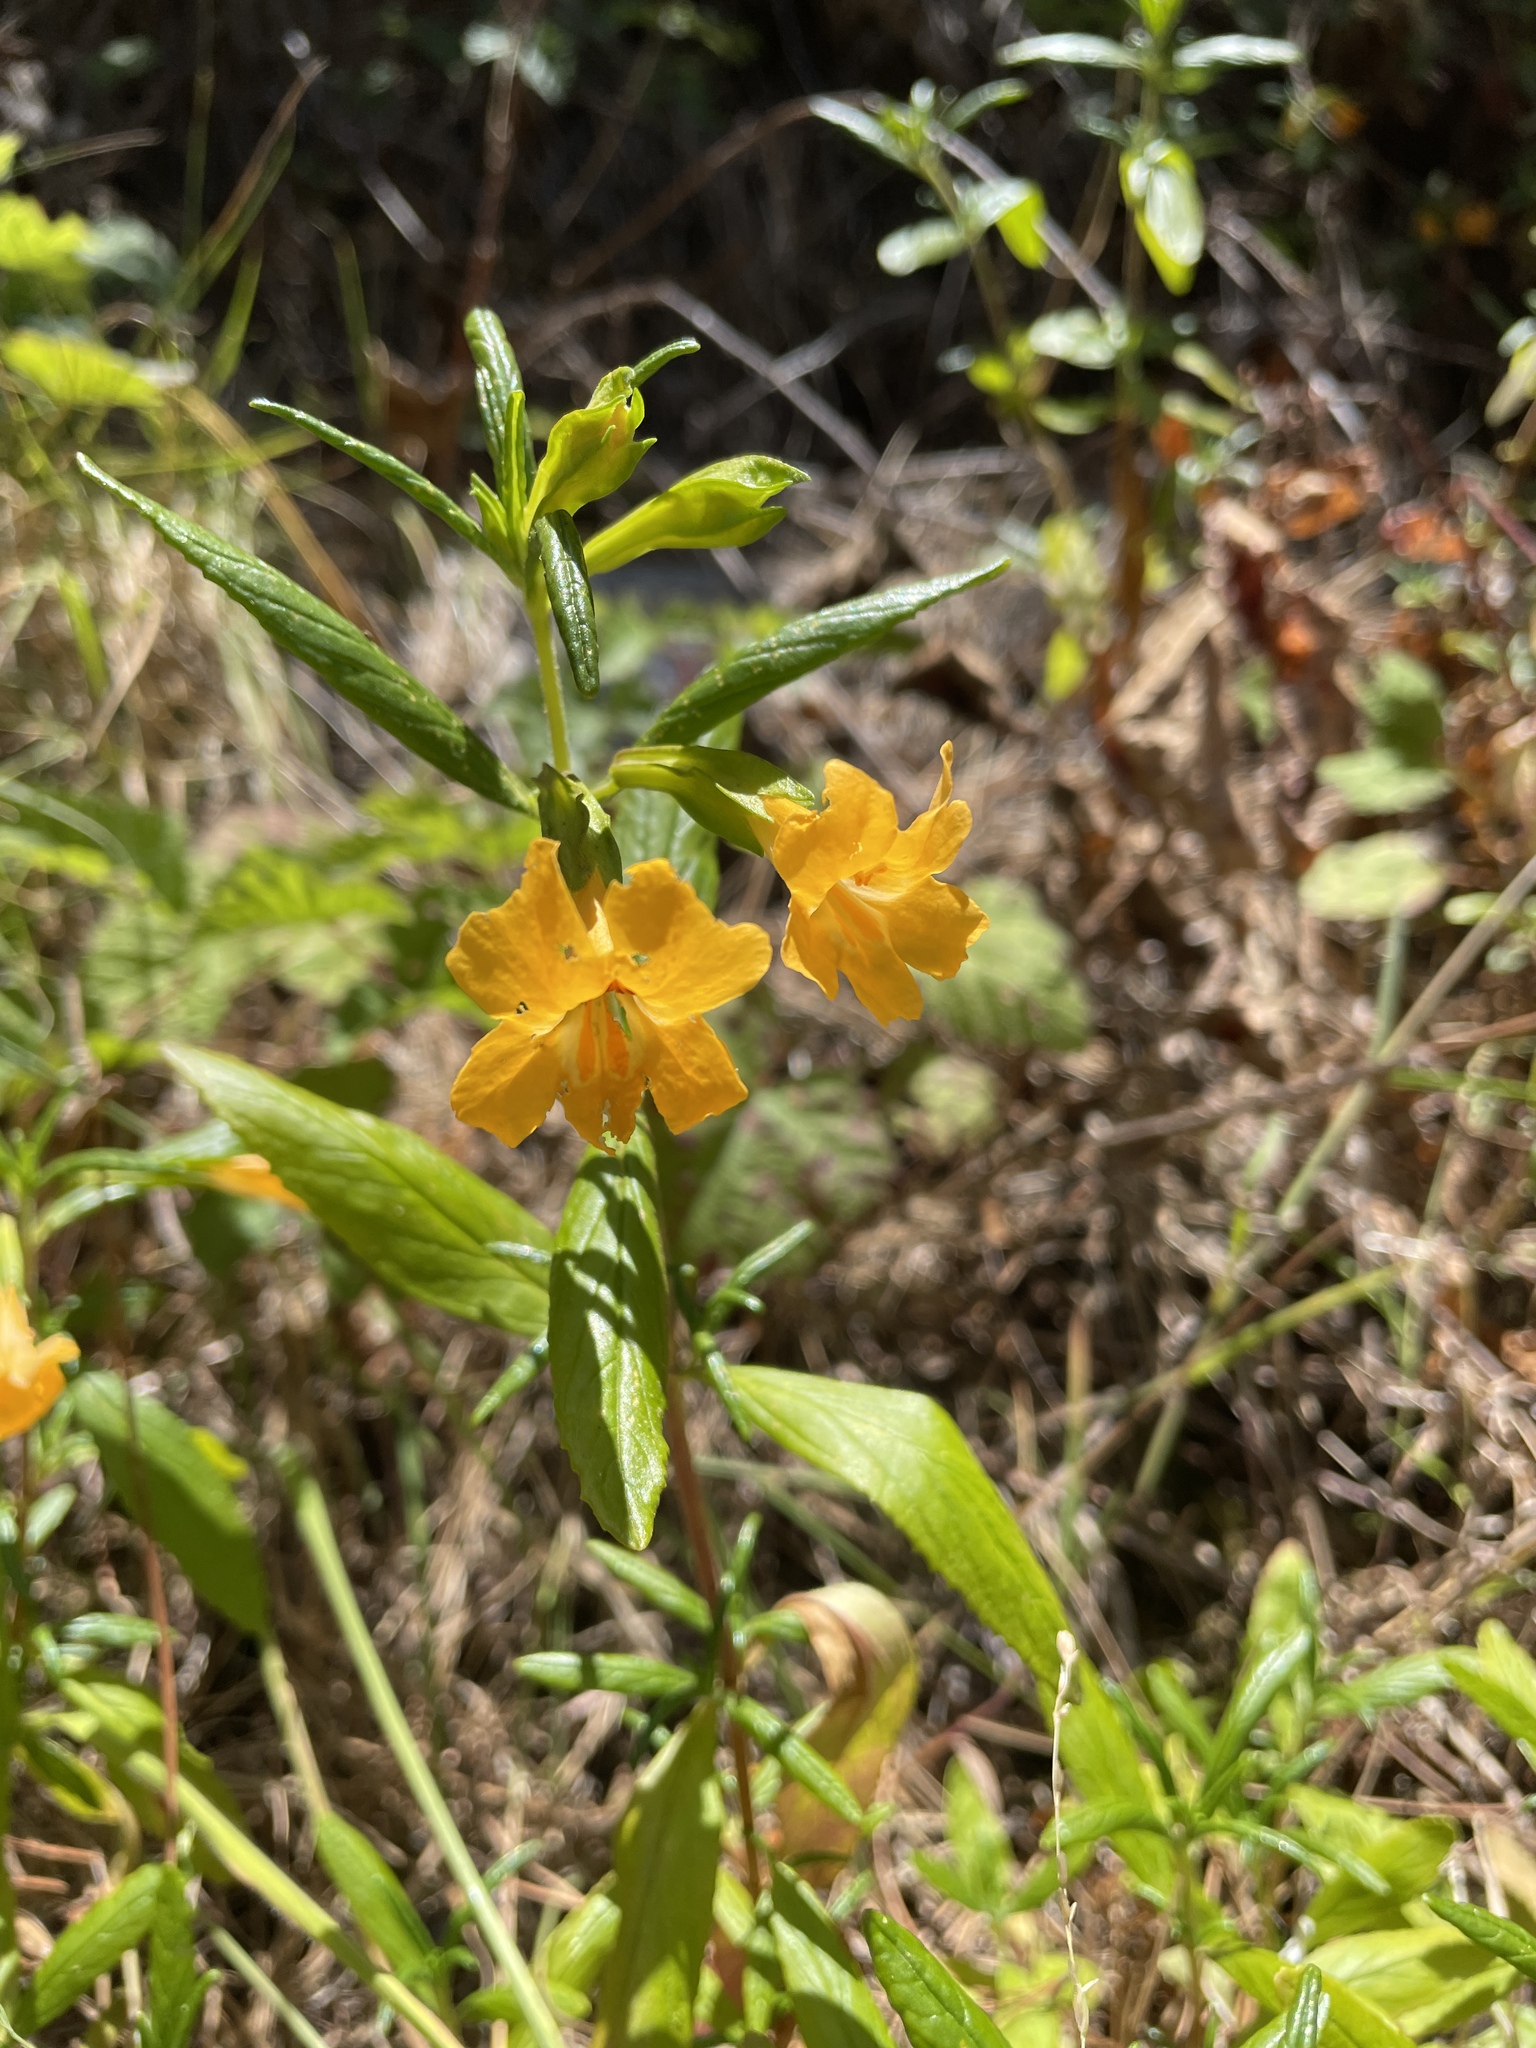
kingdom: Plantae
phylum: Tracheophyta
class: Magnoliopsida
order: Lamiales
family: Phrymaceae
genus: Diplacus
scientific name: Diplacus aurantiacus
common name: Bush monkey-flower
